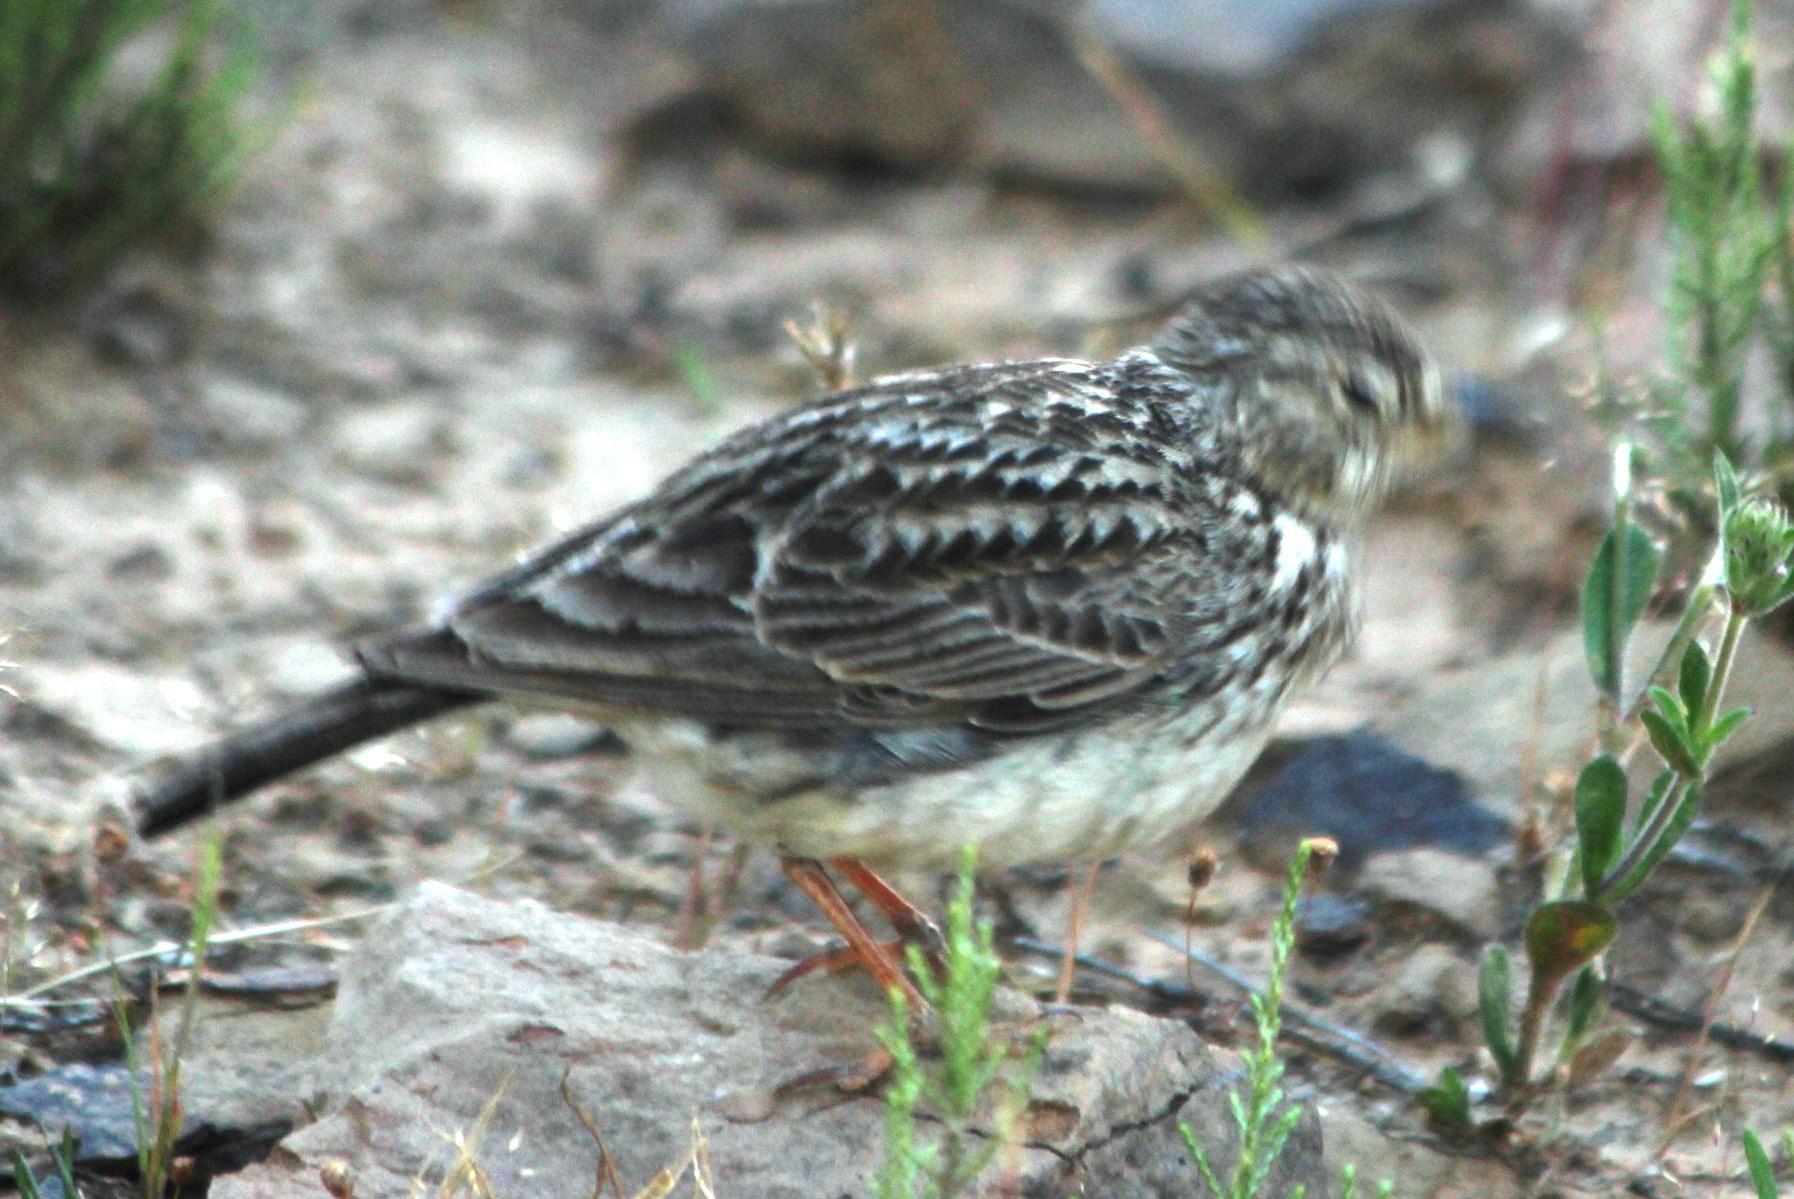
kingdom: Animalia
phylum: Chordata
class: Aves
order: Passeriformes
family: Alaudidae
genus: Galerida
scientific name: Galerida magnirostris
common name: Large-billed lark
